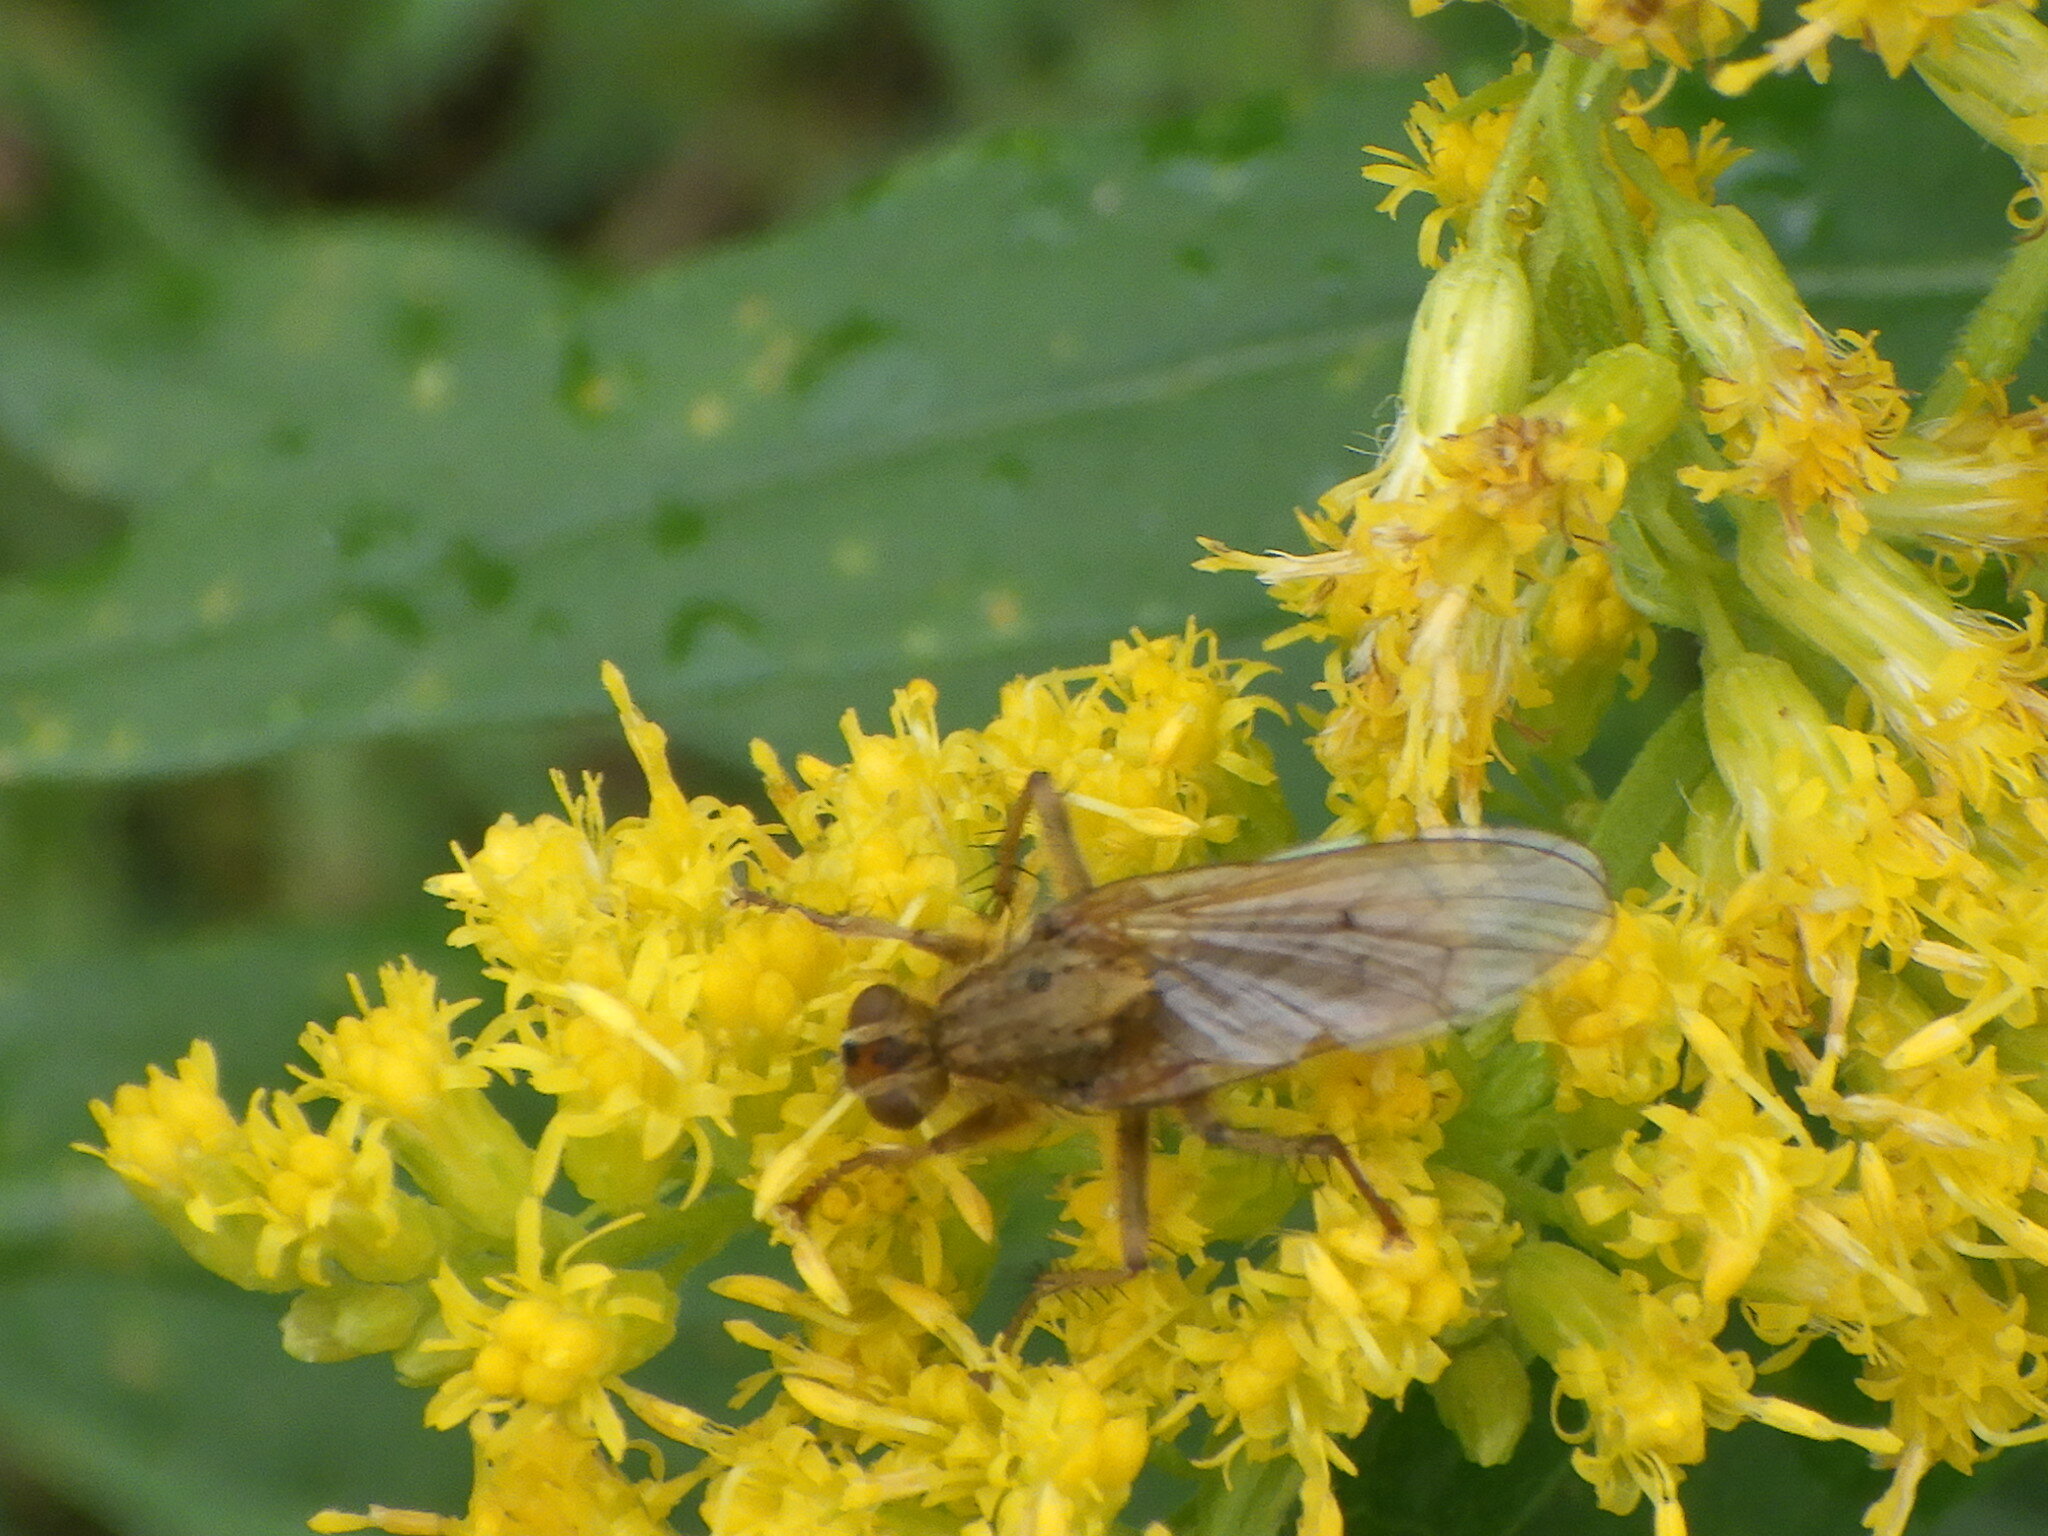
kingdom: Animalia
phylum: Arthropoda
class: Insecta
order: Diptera
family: Scathophagidae
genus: Scathophaga
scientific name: Scathophaga stercoraria
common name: Yellow dung fly
